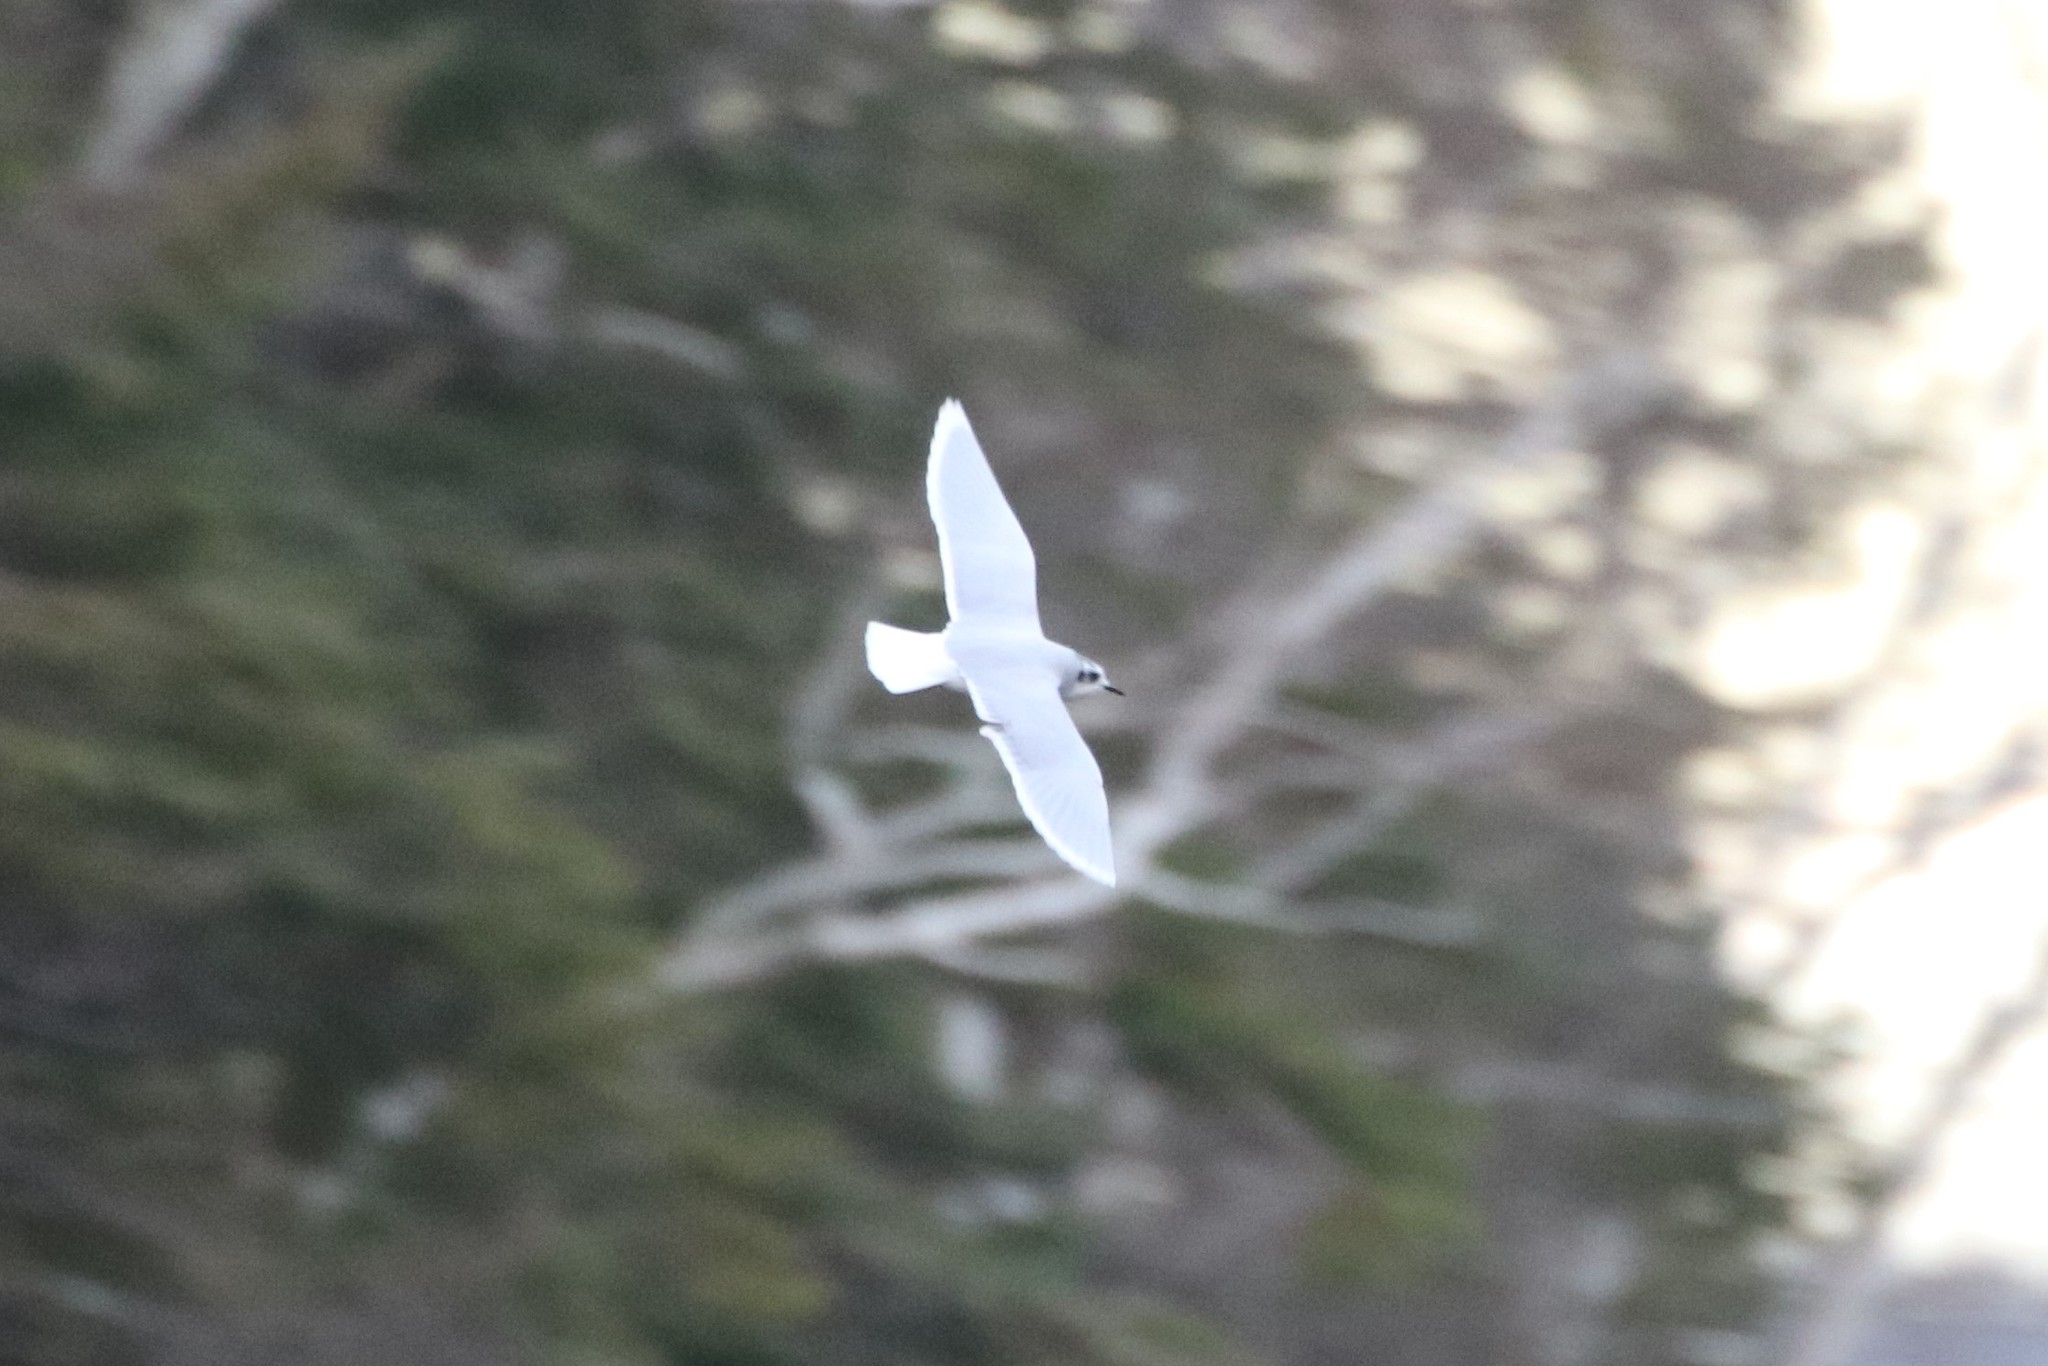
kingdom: Animalia
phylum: Chordata
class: Aves
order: Charadriiformes
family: Laridae
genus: Hydrocoloeus
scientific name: Hydrocoloeus minutus
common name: Little gull
